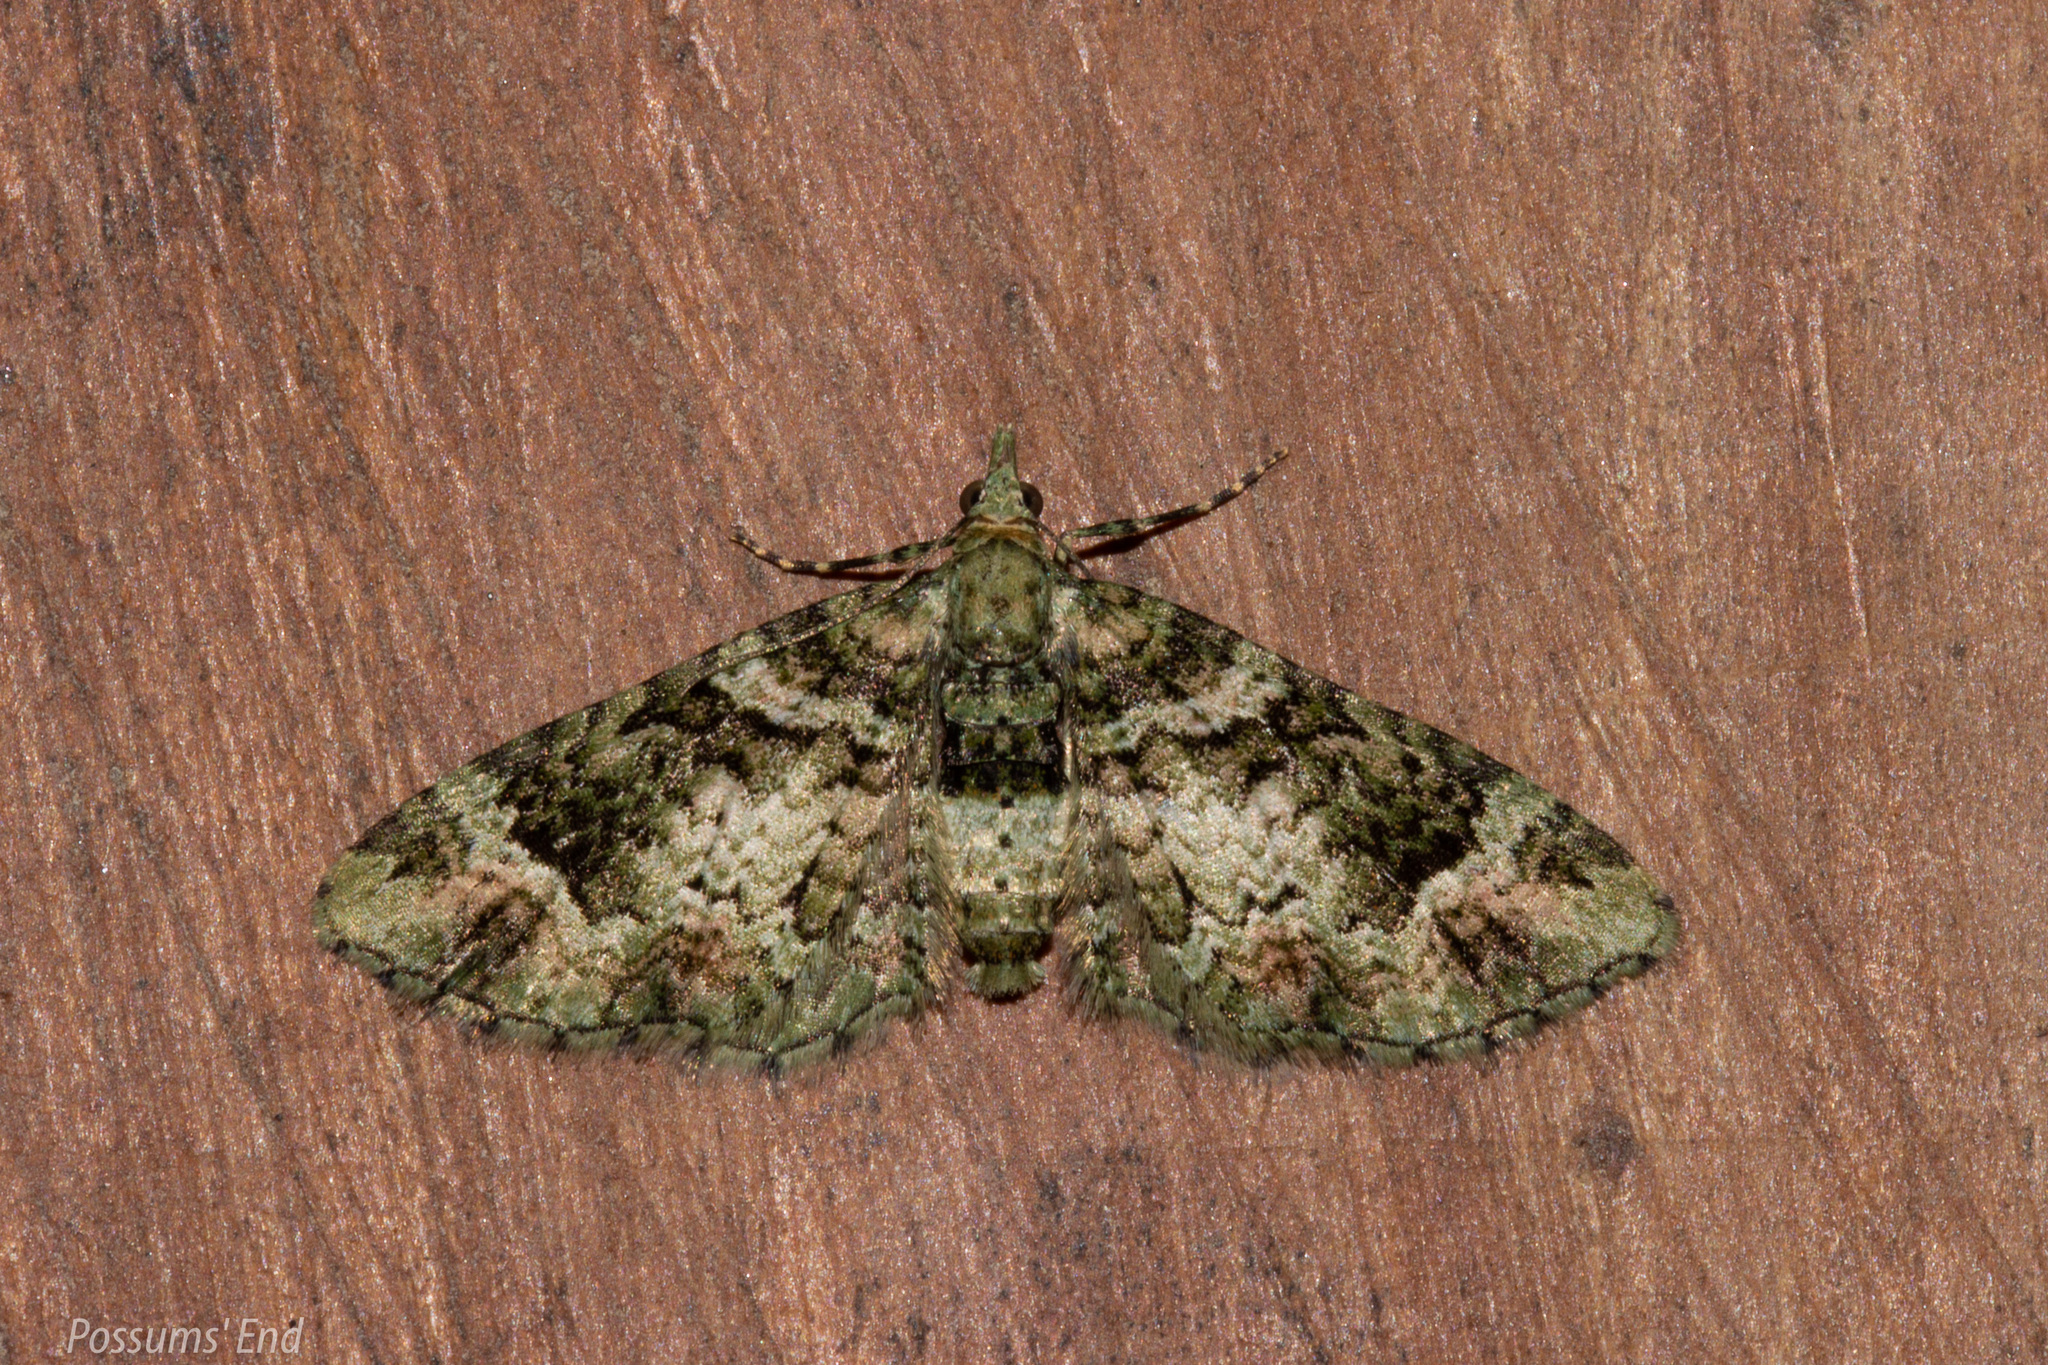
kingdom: Animalia
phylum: Arthropoda
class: Insecta
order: Lepidoptera
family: Geometridae
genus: Idaea
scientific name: Idaea mutanda
